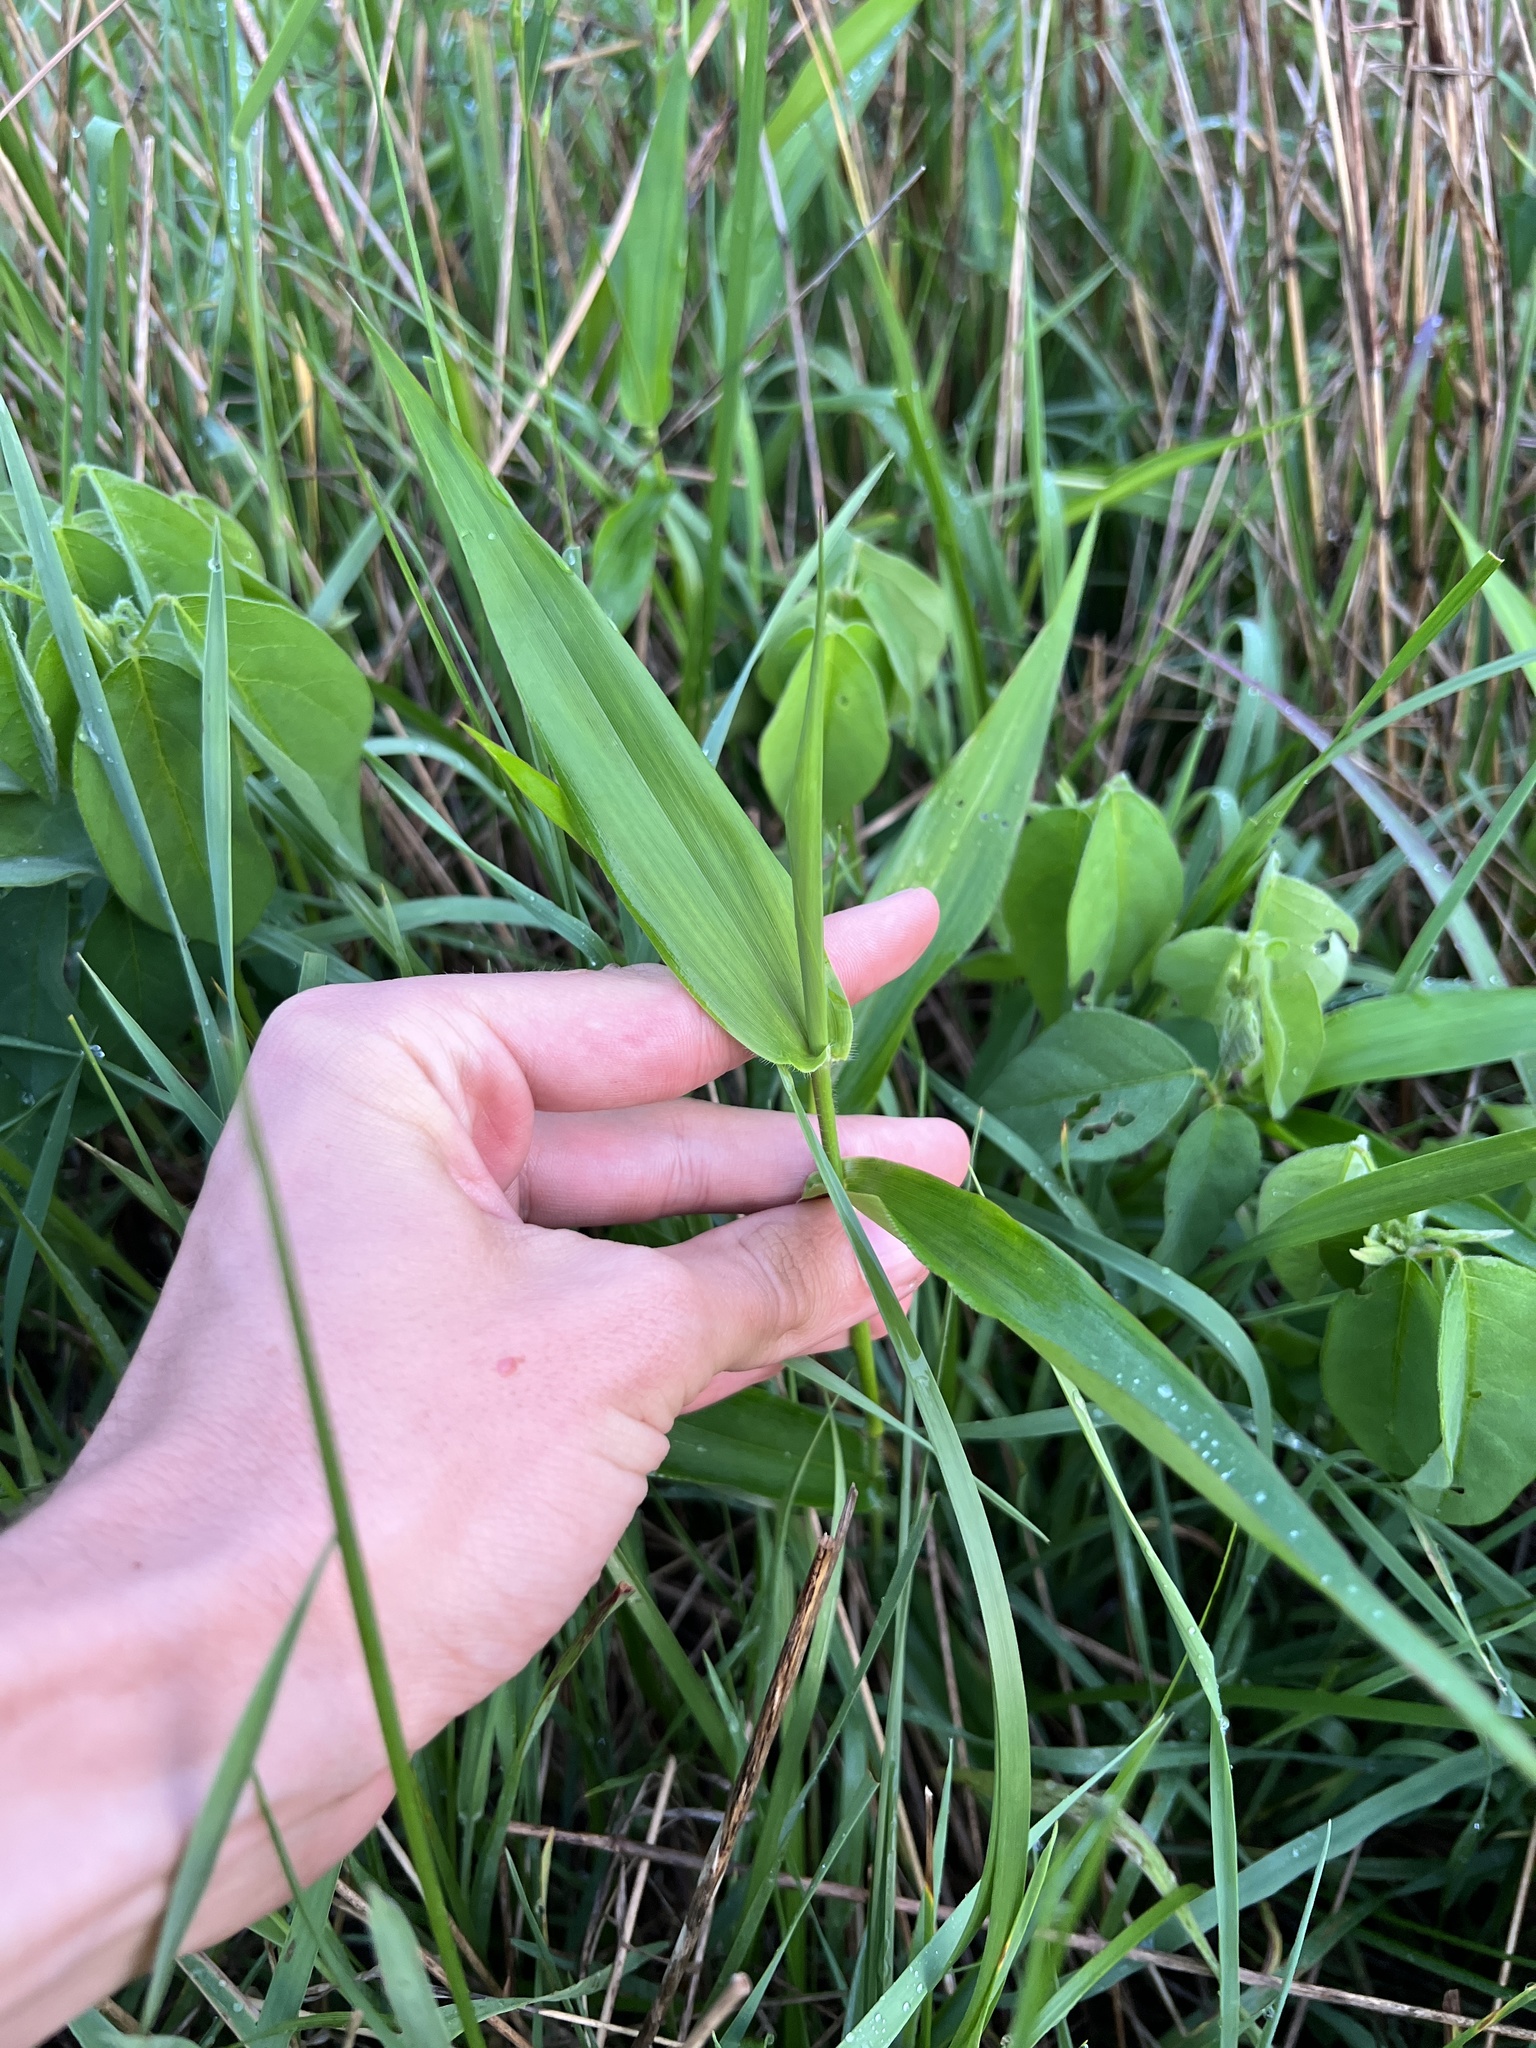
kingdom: Plantae
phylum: Tracheophyta
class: Liliopsida
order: Poales
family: Poaceae
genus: Dichanthelium
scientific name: Dichanthelium clandestinum
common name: Deer-tongue grass
